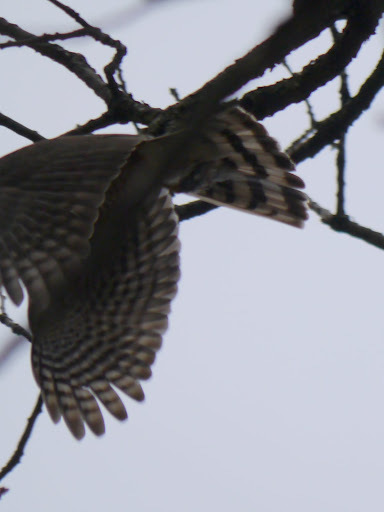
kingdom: Animalia
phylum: Chordata
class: Aves
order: Accipitriformes
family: Accipitridae
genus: Accipiter
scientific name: Accipiter striatus
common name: Sharp-shinned hawk
